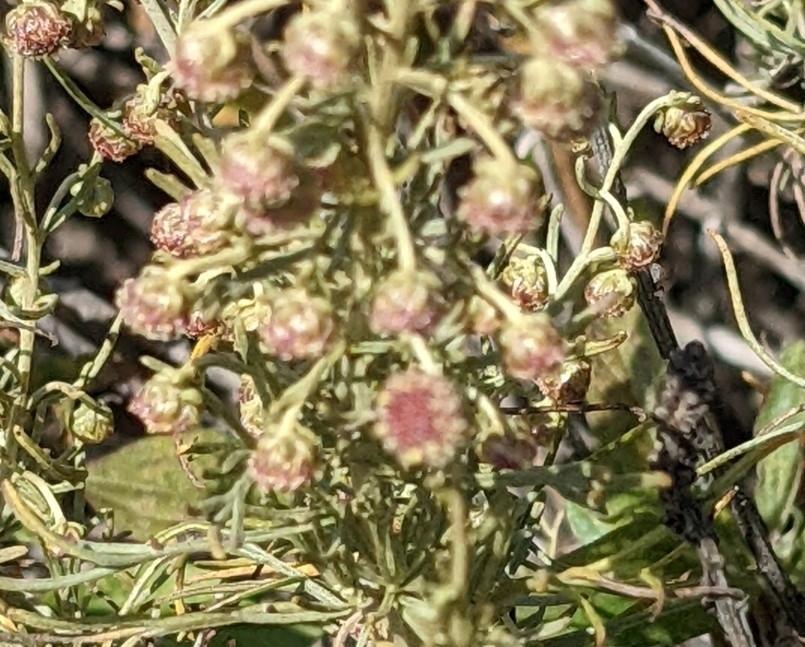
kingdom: Plantae
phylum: Tracheophyta
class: Magnoliopsida
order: Asterales
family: Asteraceae
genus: Artemisia
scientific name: Artemisia californica
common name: California sagebrush
